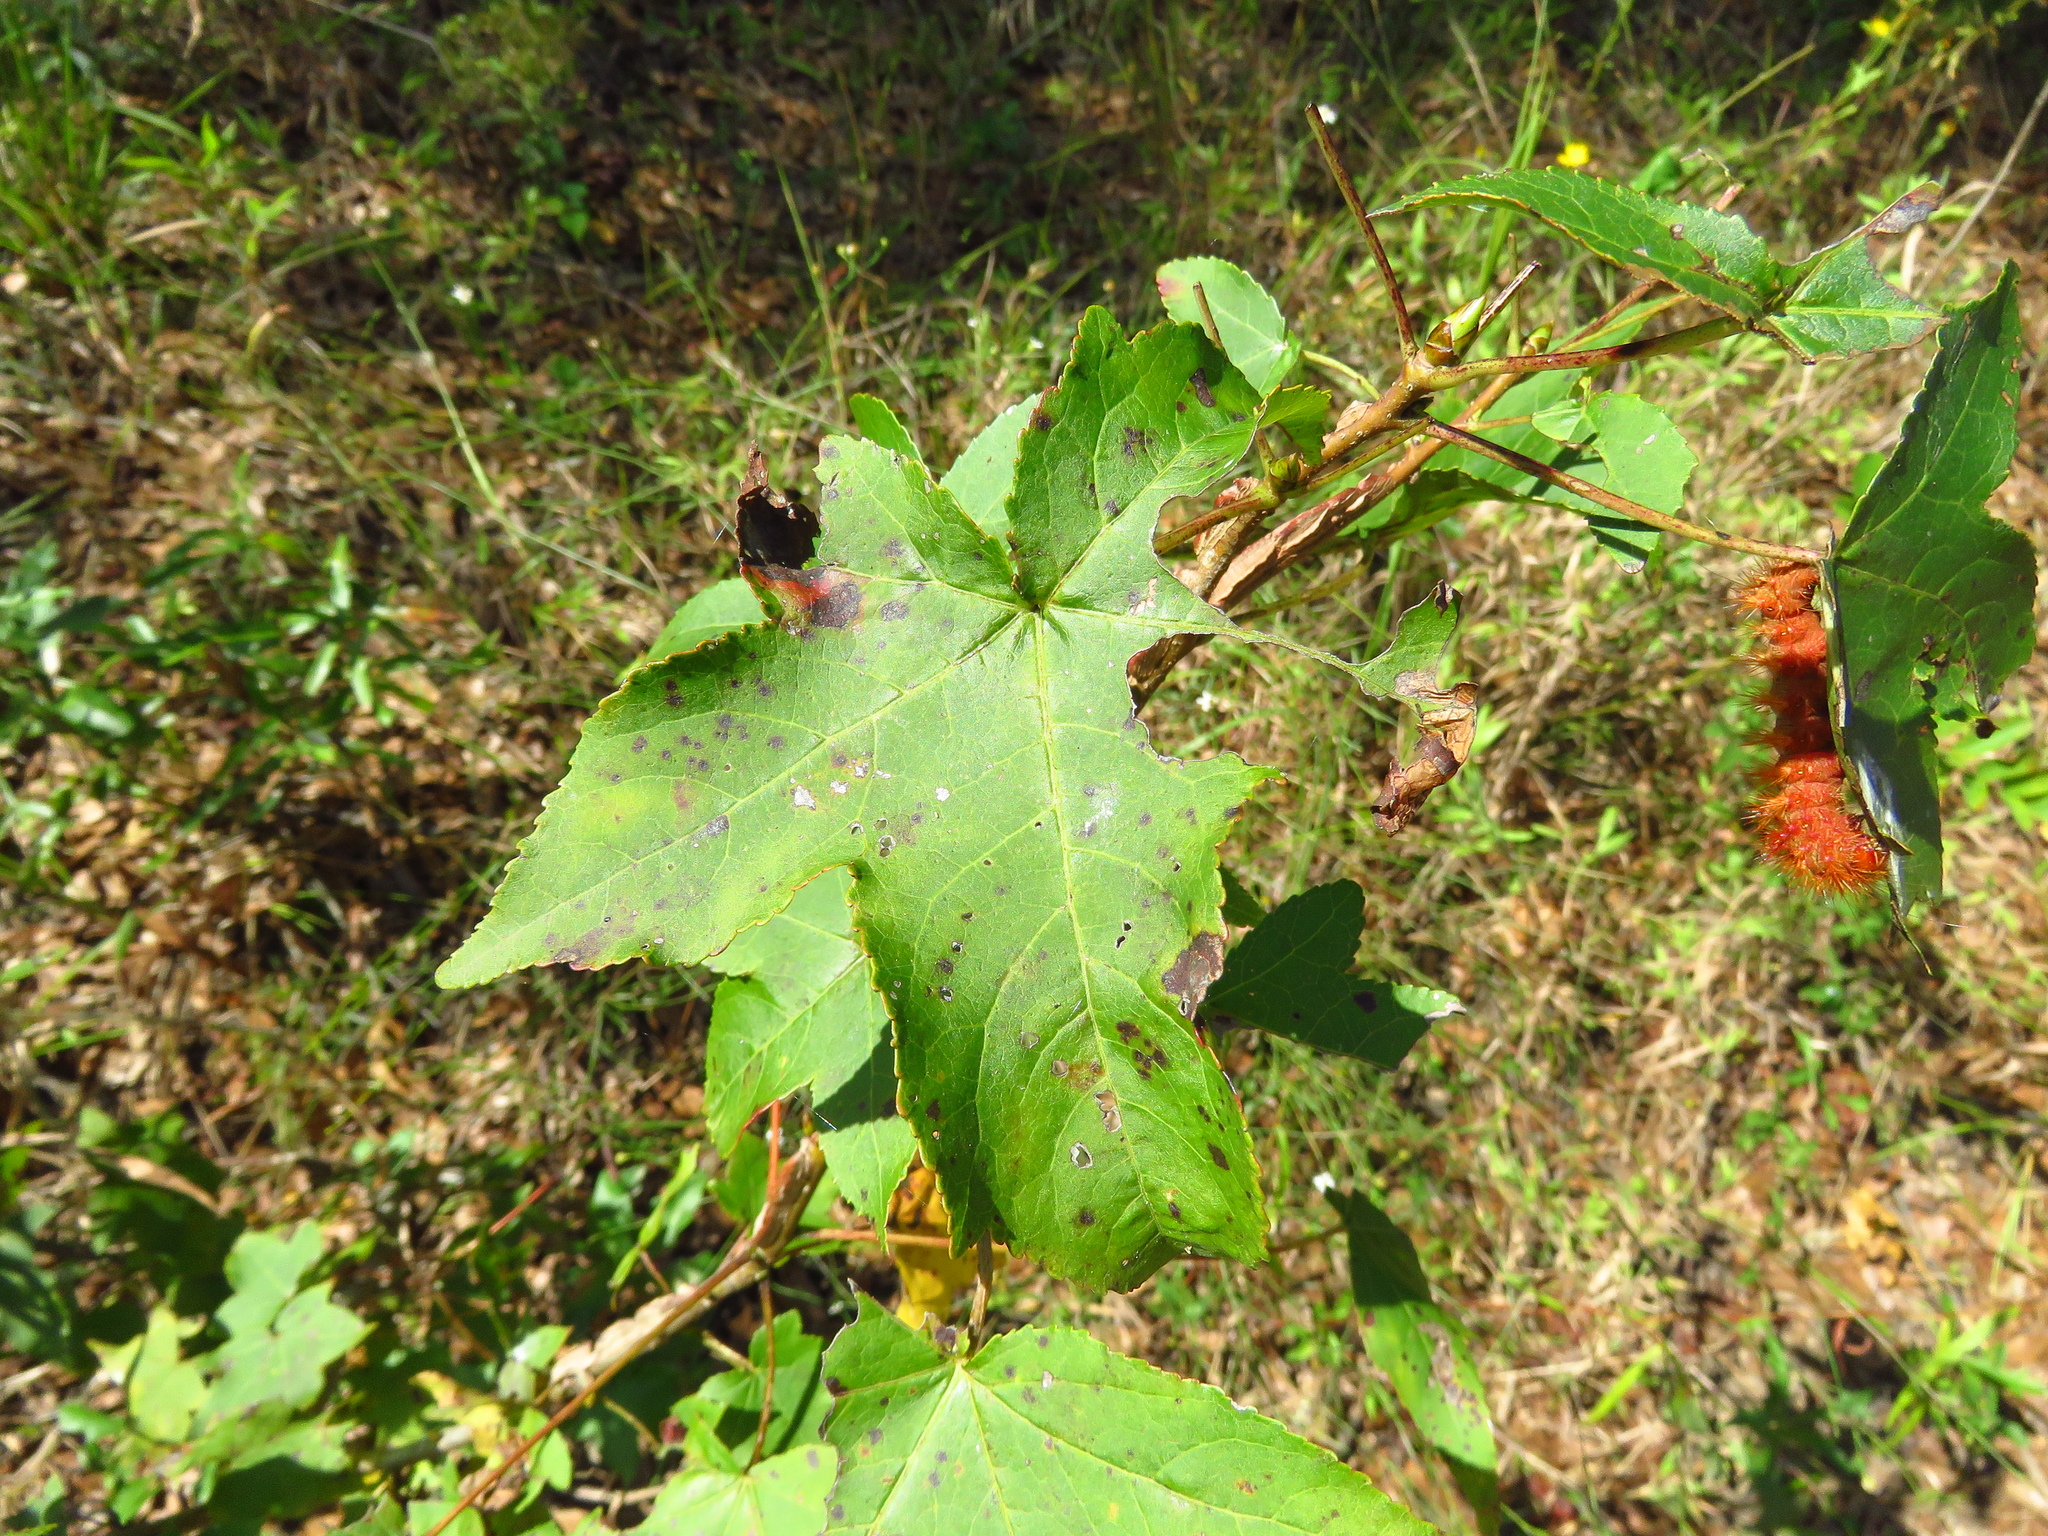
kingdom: Plantae
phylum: Tracheophyta
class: Magnoliopsida
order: Saxifragales
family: Altingiaceae
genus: Liquidambar
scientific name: Liquidambar styraciflua
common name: Sweet gum
